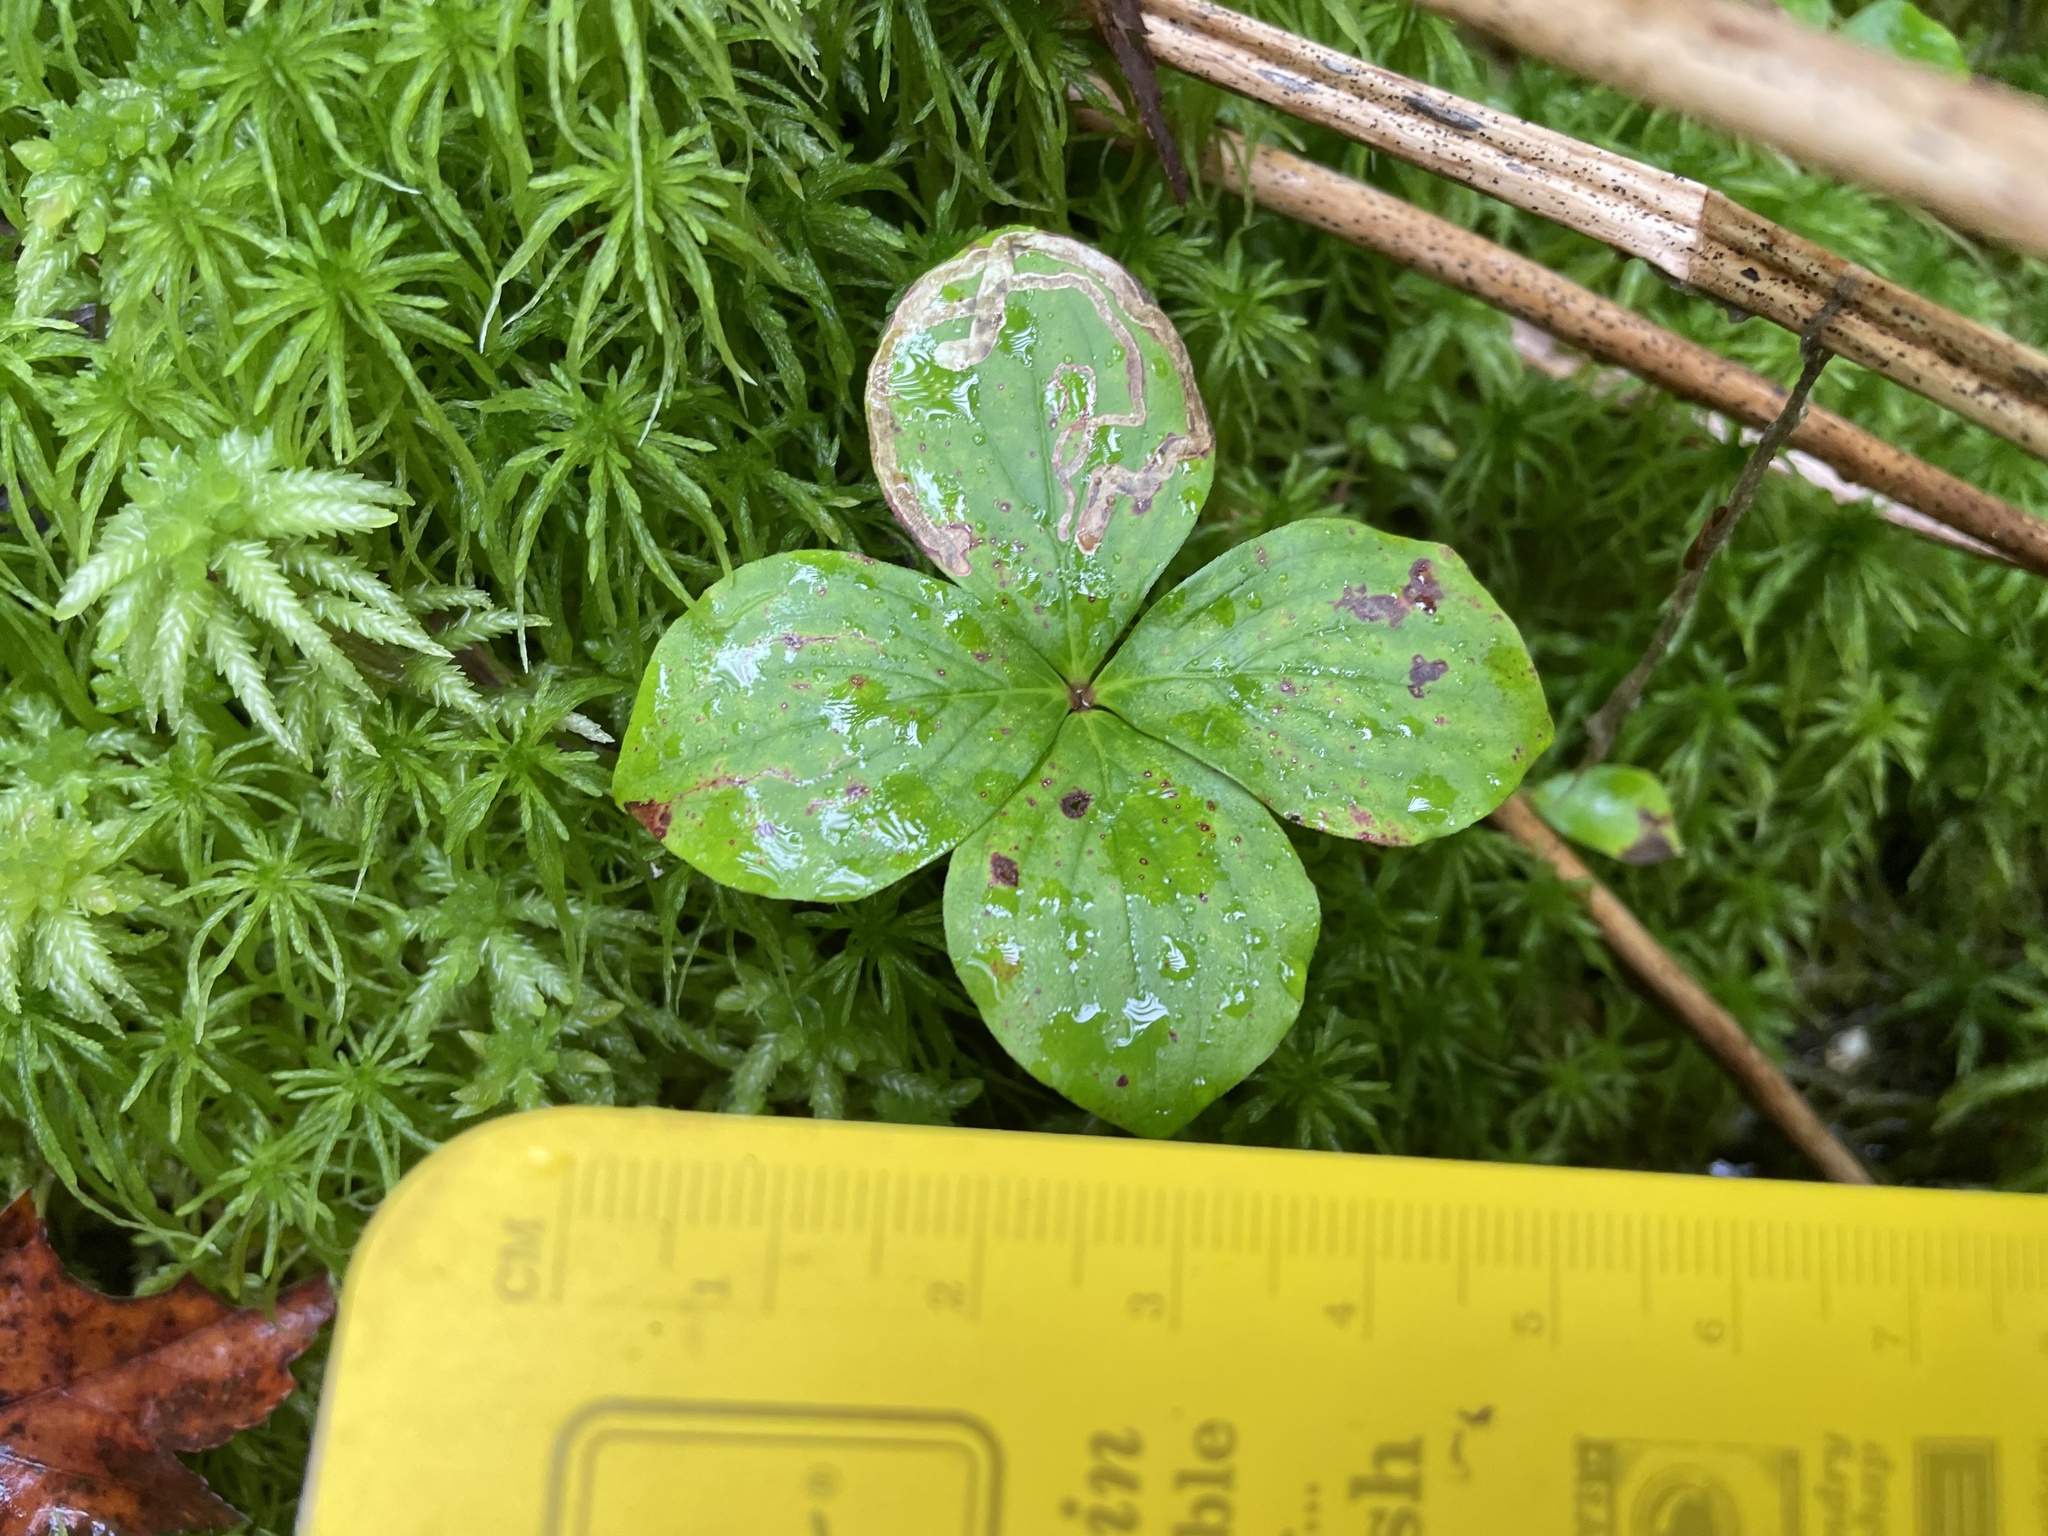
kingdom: Animalia
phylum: Arthropoda
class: Insecta
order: Diptera
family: Agromyzidae
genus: Phytomyza
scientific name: Phytomyza agromyzina
